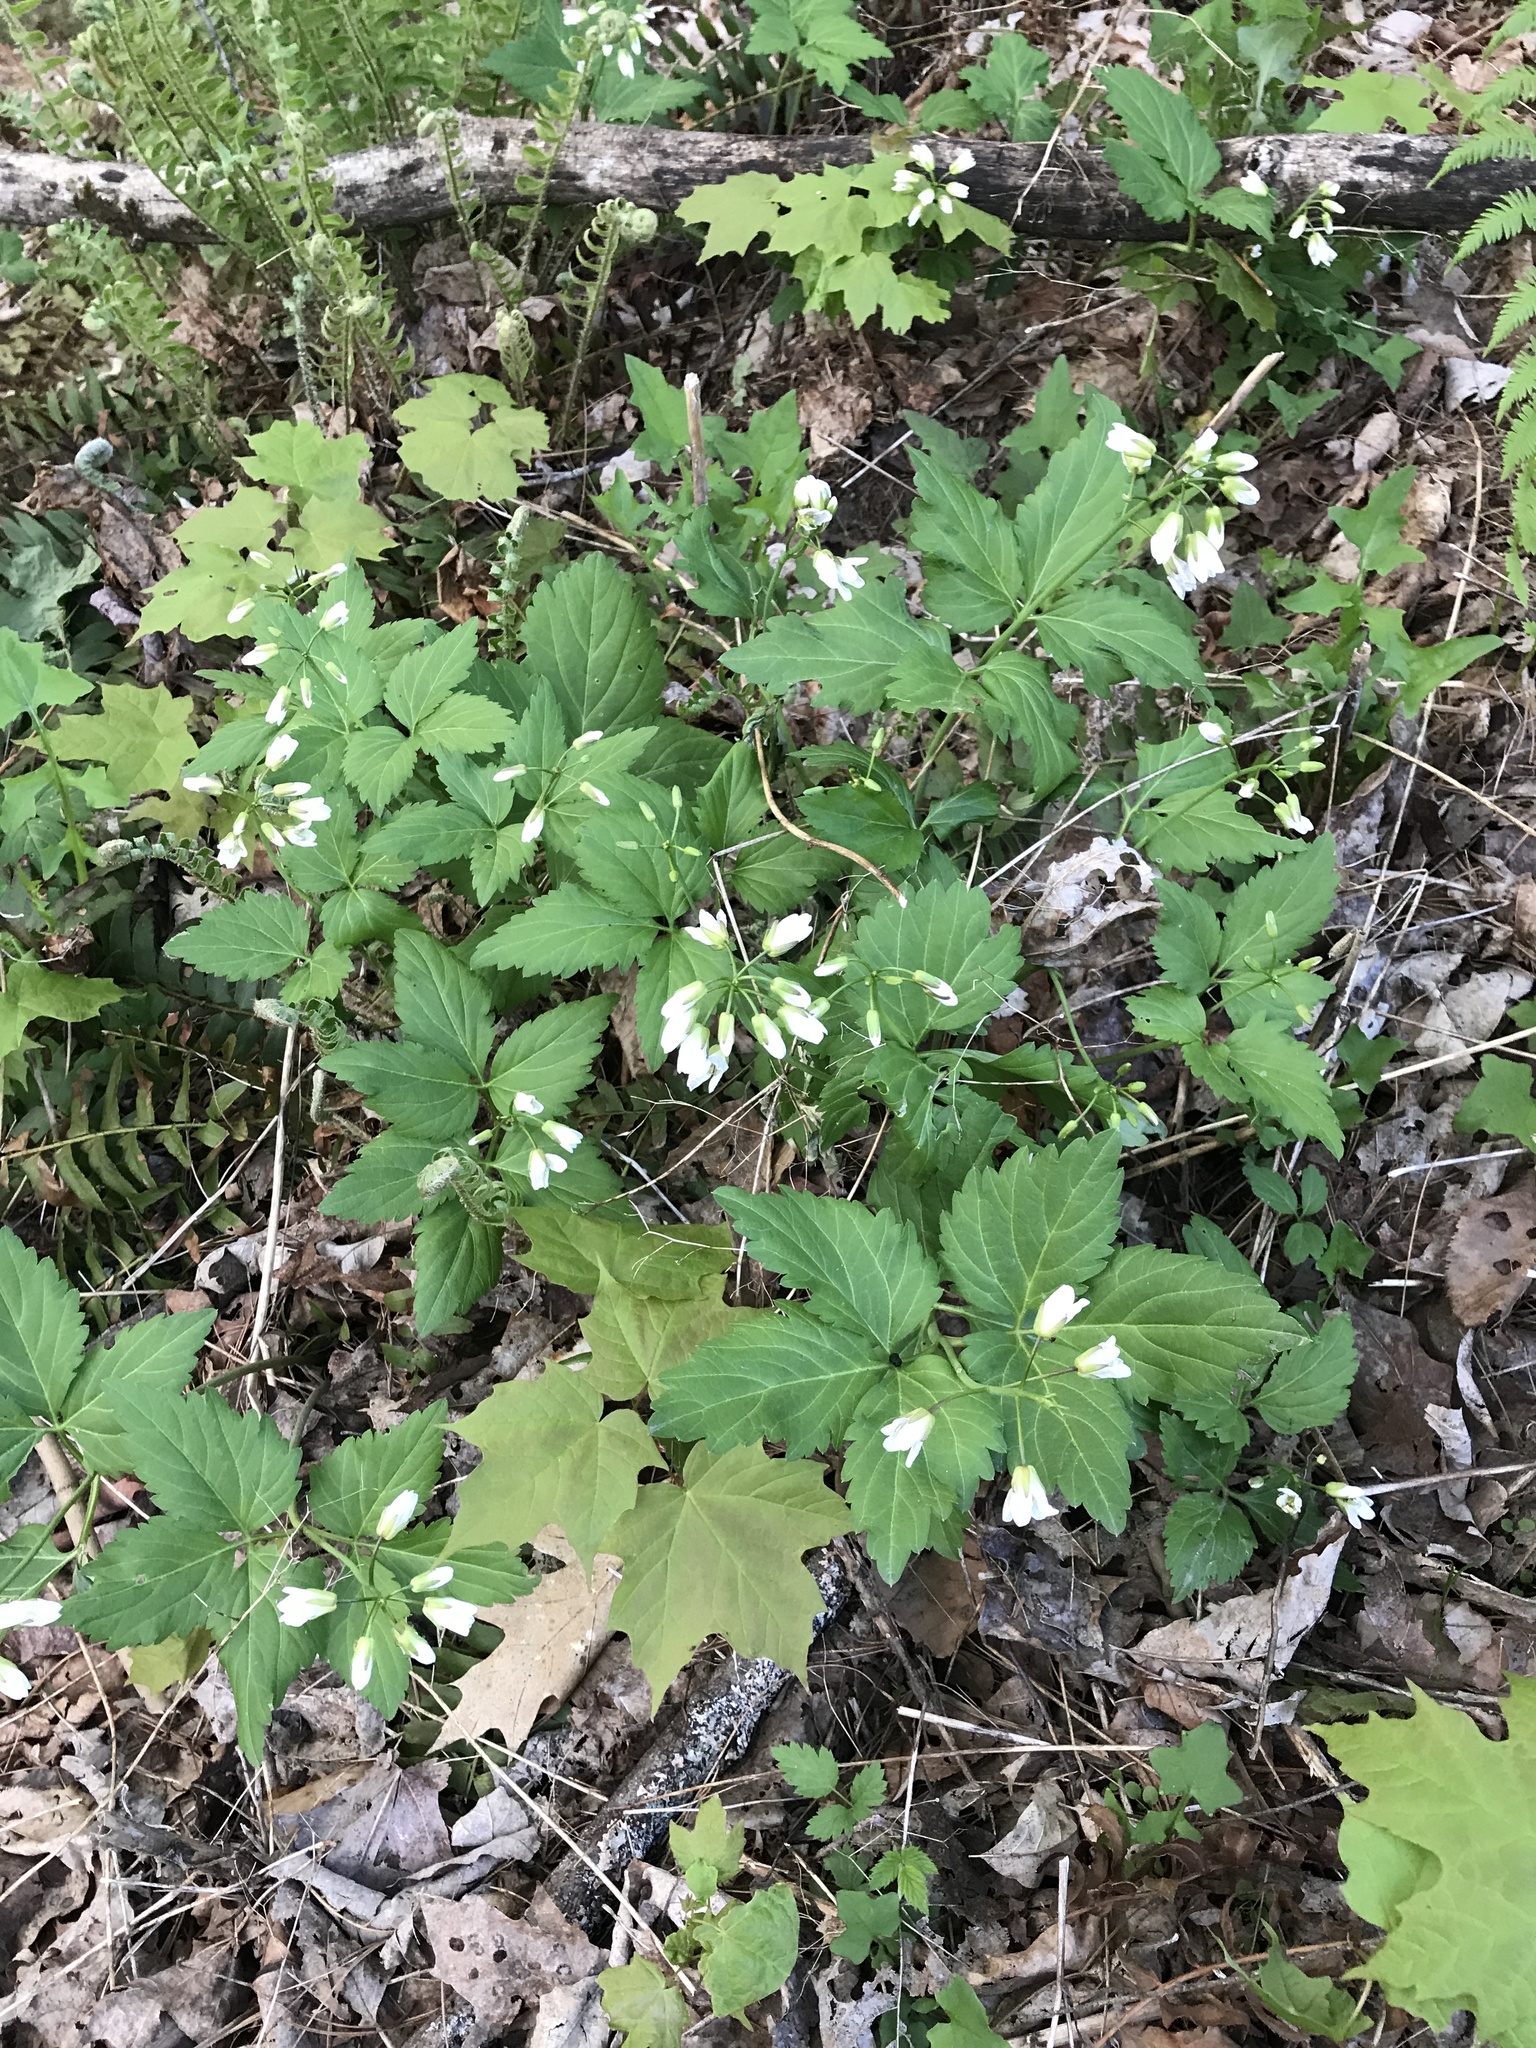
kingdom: Plantae
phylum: Tracheophyta
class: Magnoliopsida
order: Brassicales
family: Brassicaceae
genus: Cardamine
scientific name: Cardamine diphylla
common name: Broad-leaved toothwort
